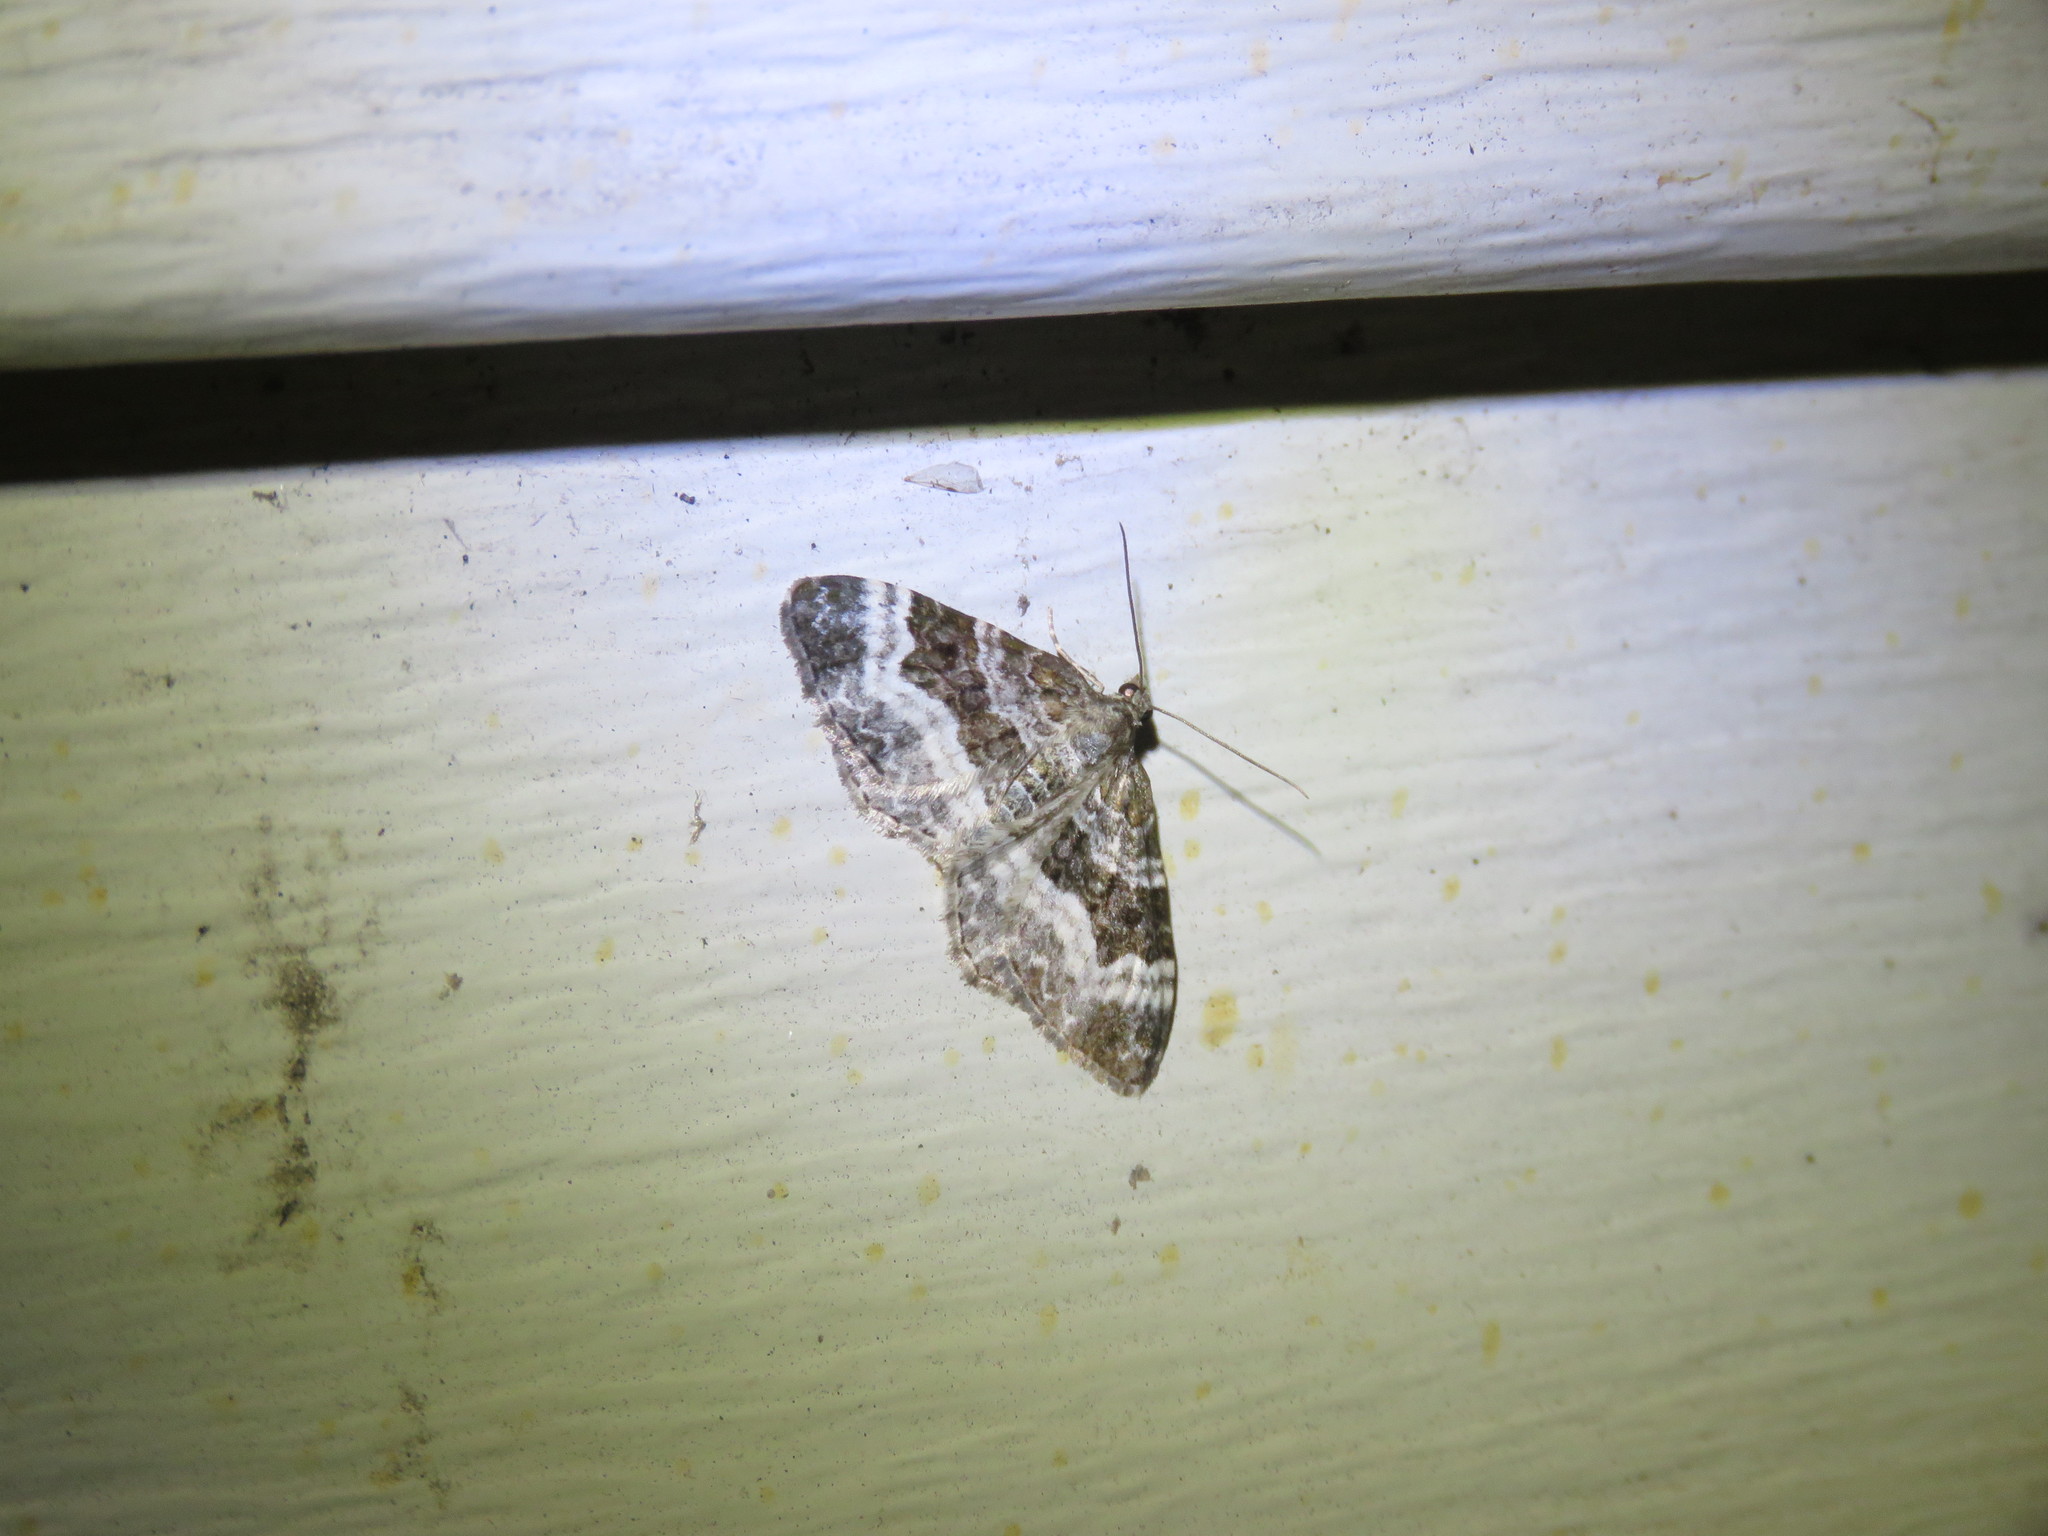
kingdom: Animalia
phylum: Arthropoda
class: Insecta
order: Lepidoptera
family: Geometridae
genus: Epirrhoe
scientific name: Epirrhoe alternata
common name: Common carpet
